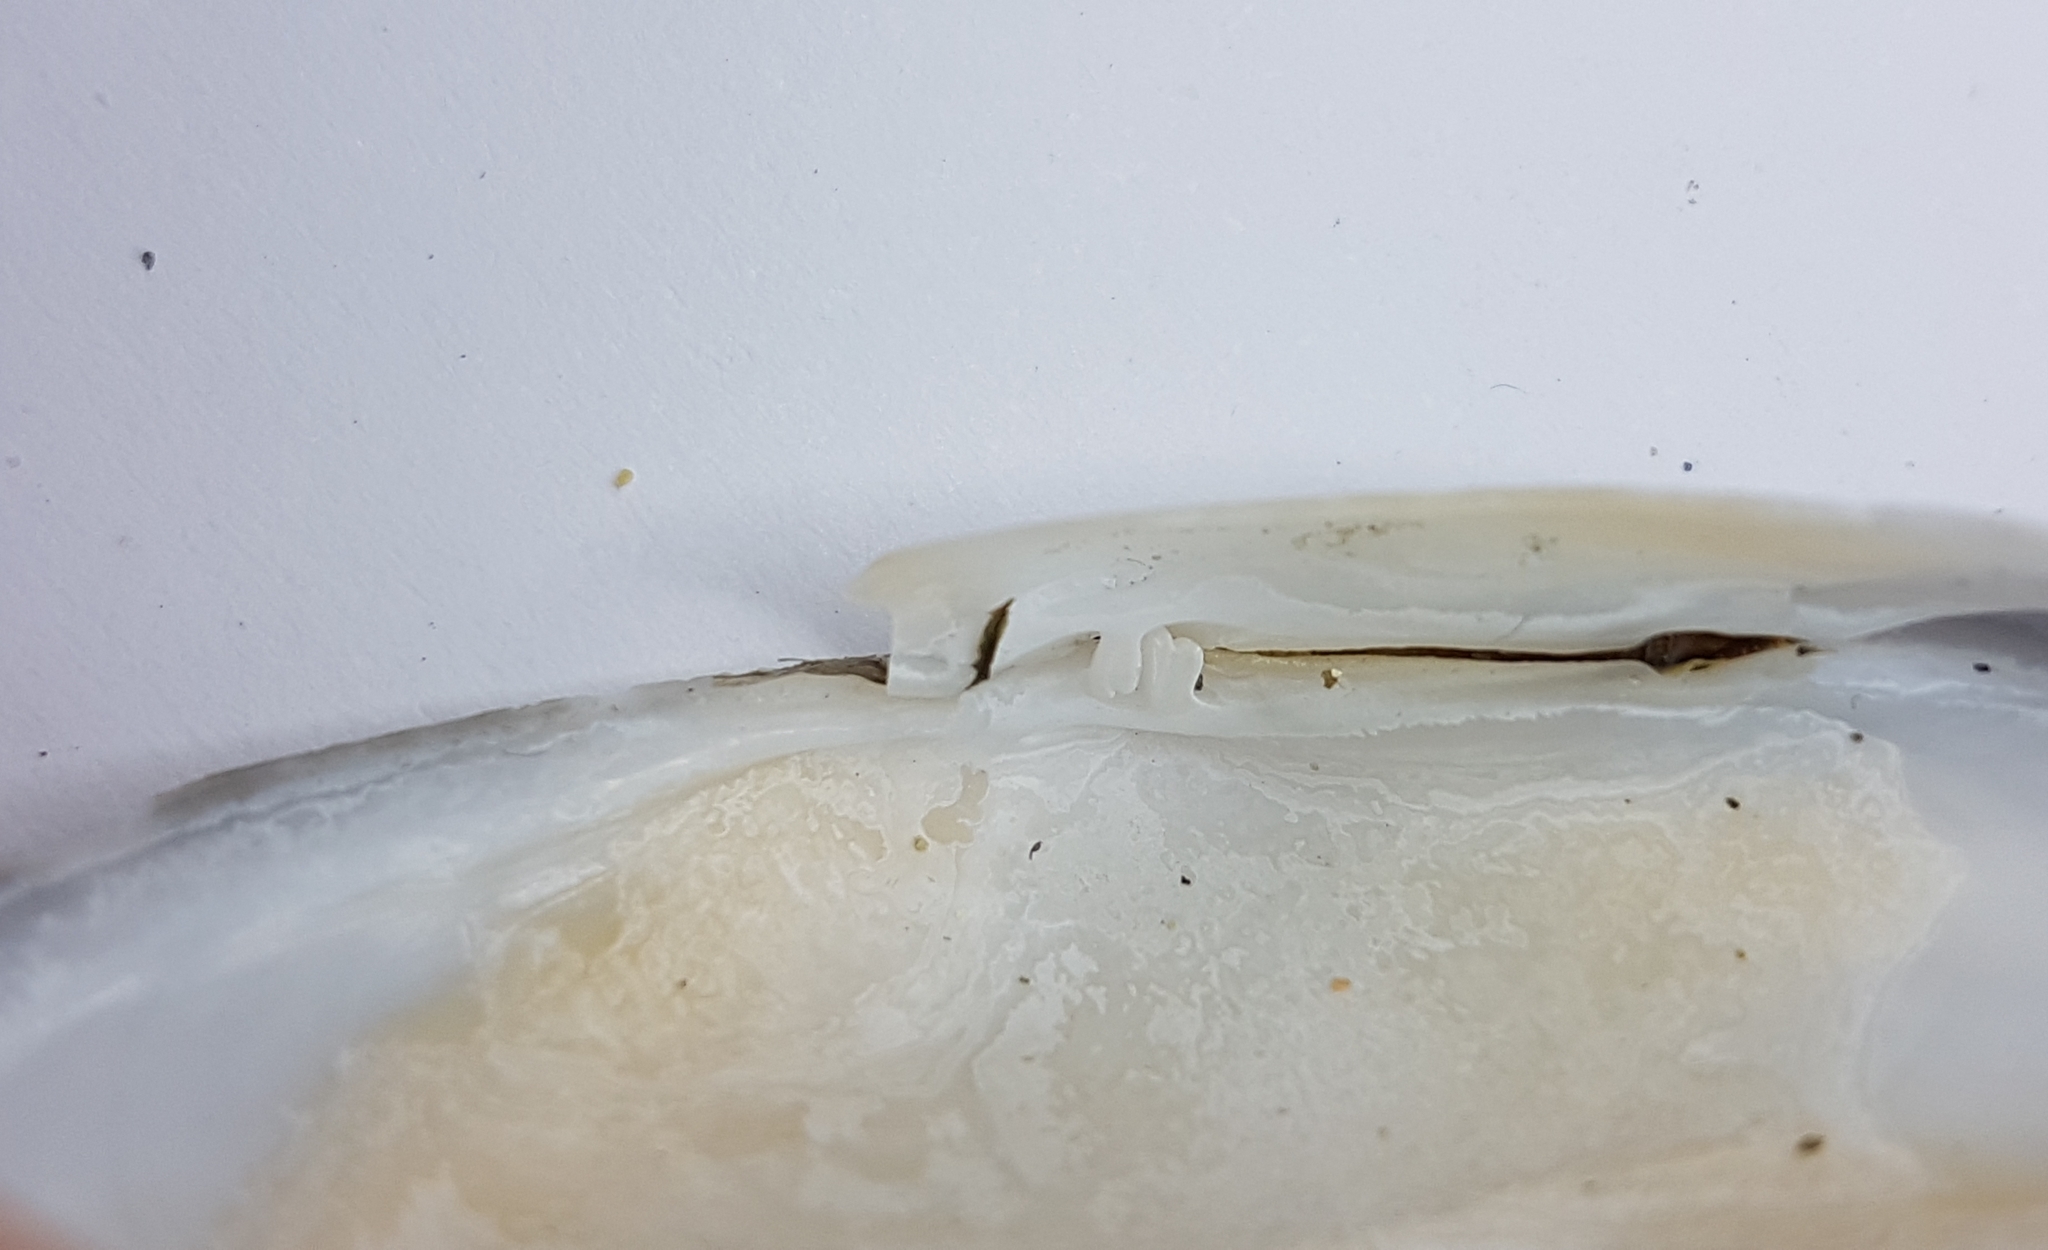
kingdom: Animalia
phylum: Mollusca
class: Bivalvia
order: Cardiida
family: Tellinidae
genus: Peronaea
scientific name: Peronaea planata
